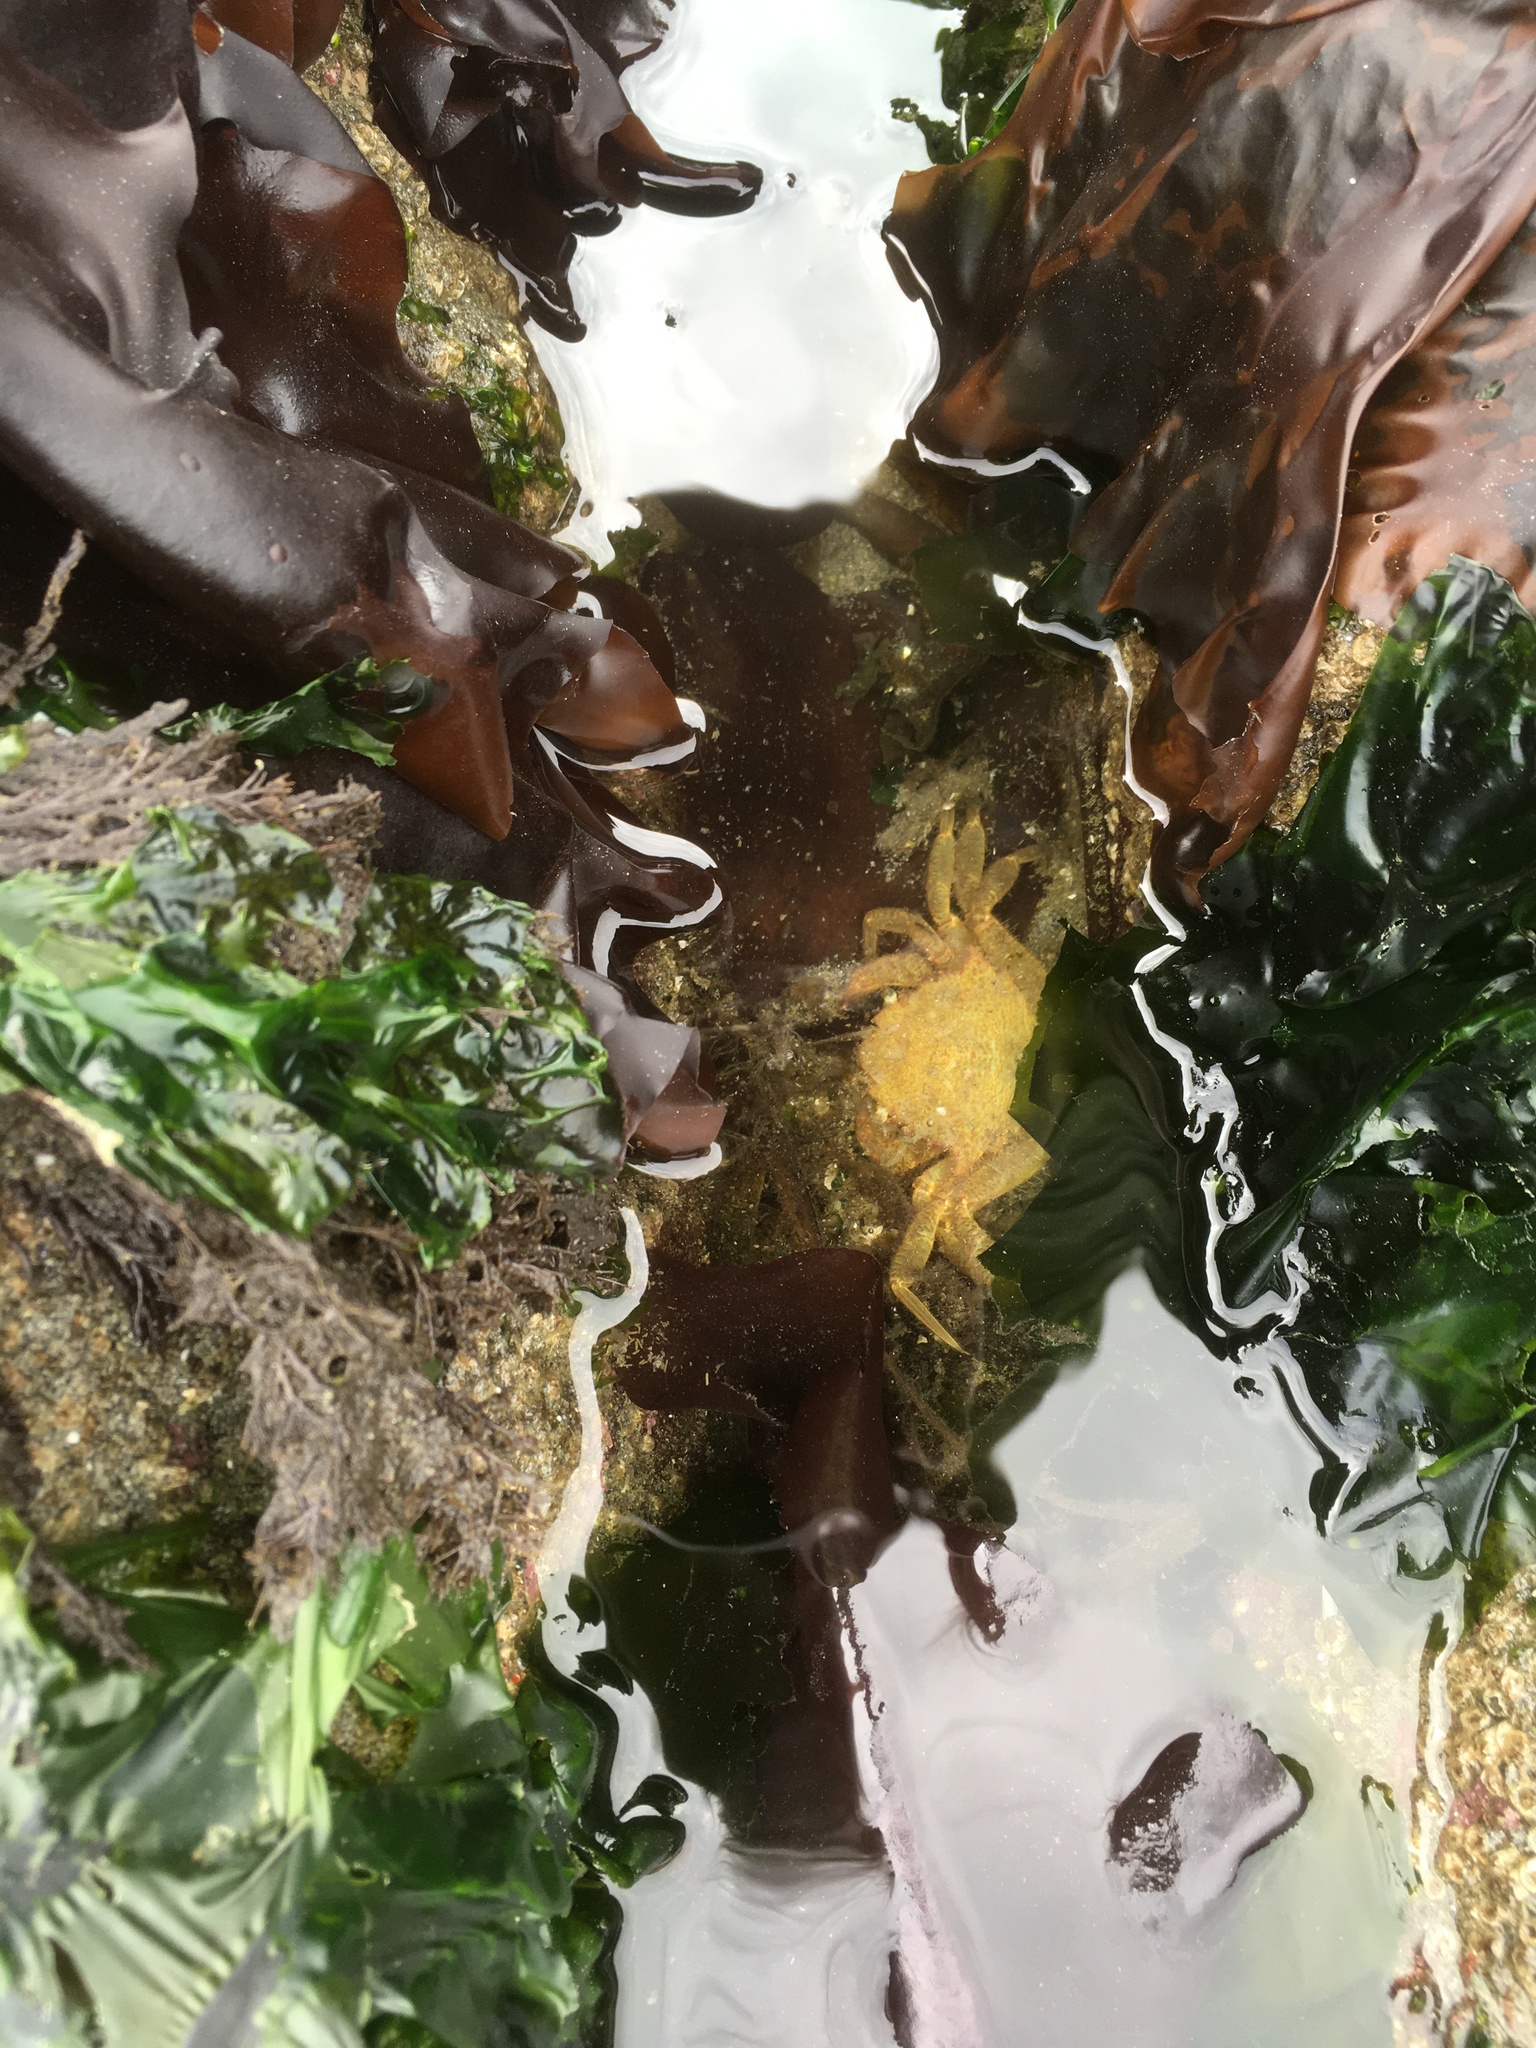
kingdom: Animalia
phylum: Arthropoda
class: Malacostraca
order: Decapoda
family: Cheiragonidae
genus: Telmessus
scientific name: Telmessus cheiragonus
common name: Helmet crab
